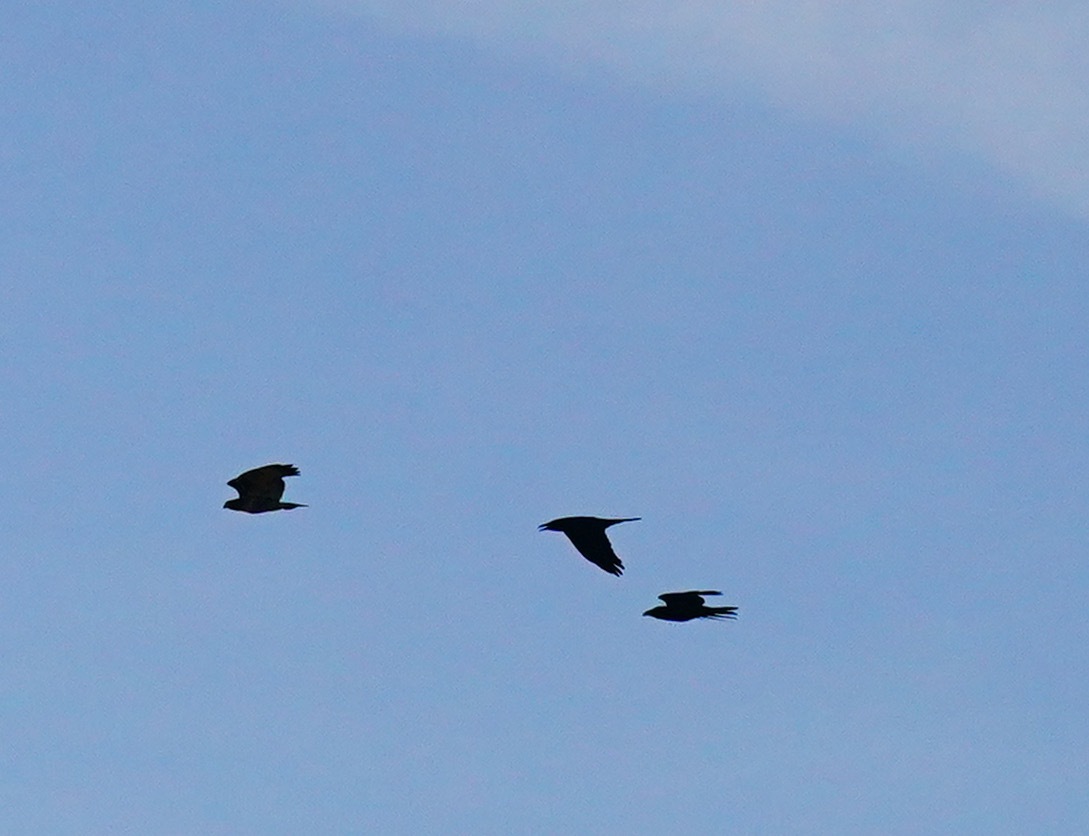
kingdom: Animalia
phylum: Chordata
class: Aves
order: Accipitriformes
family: Accipitridae
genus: Buteo
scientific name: Buteo jamaicensis
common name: Red-tailed hawk
